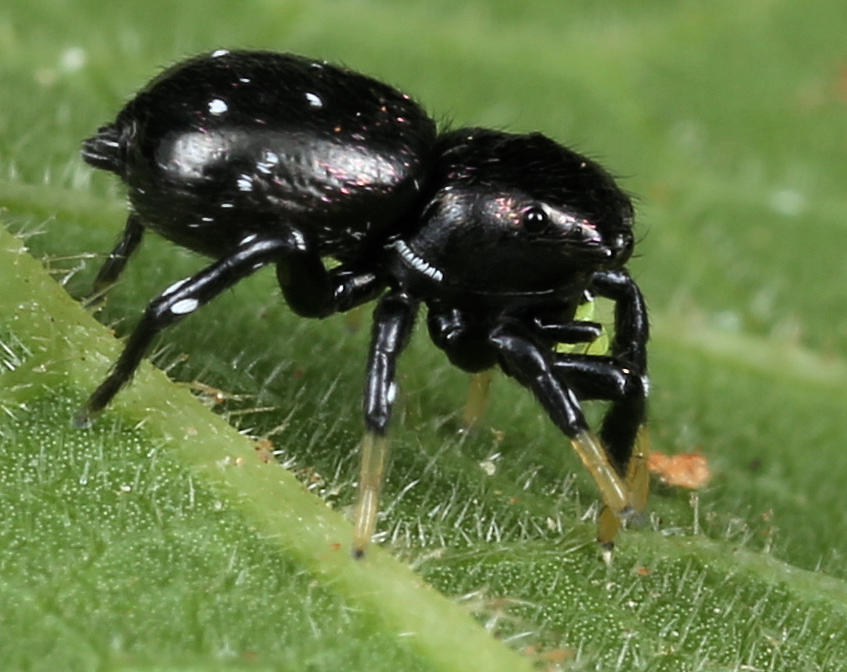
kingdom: Animalia
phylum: Arthropoda
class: Arachnida
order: Araneae
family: Salticidae
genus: Heliophanus
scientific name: Heliophanus
